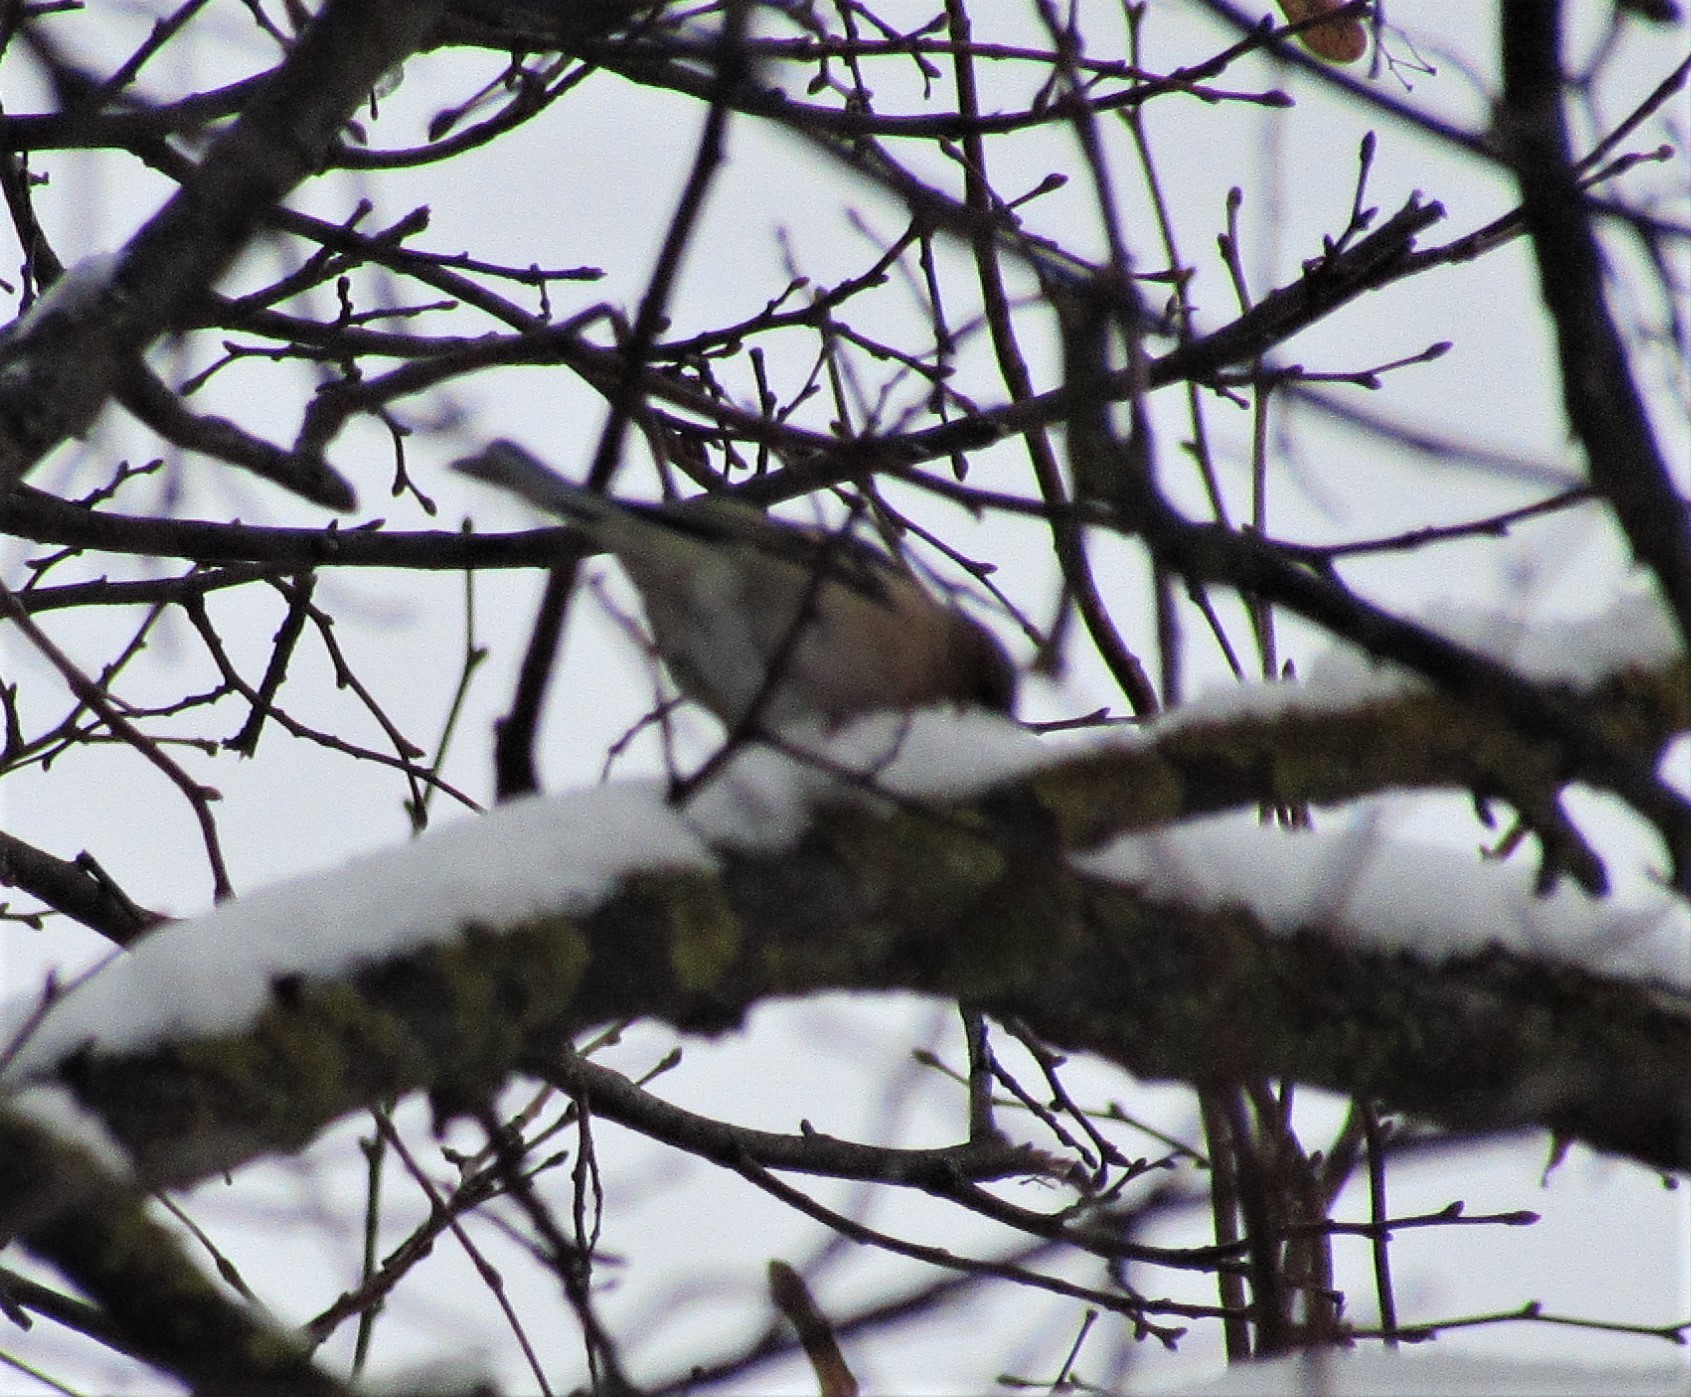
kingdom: Animalia
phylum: Chordata
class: Aves
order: Passeriformes
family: Fringillidae
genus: Fringilla
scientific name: Fringilla coelebs
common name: Common chaffinch
